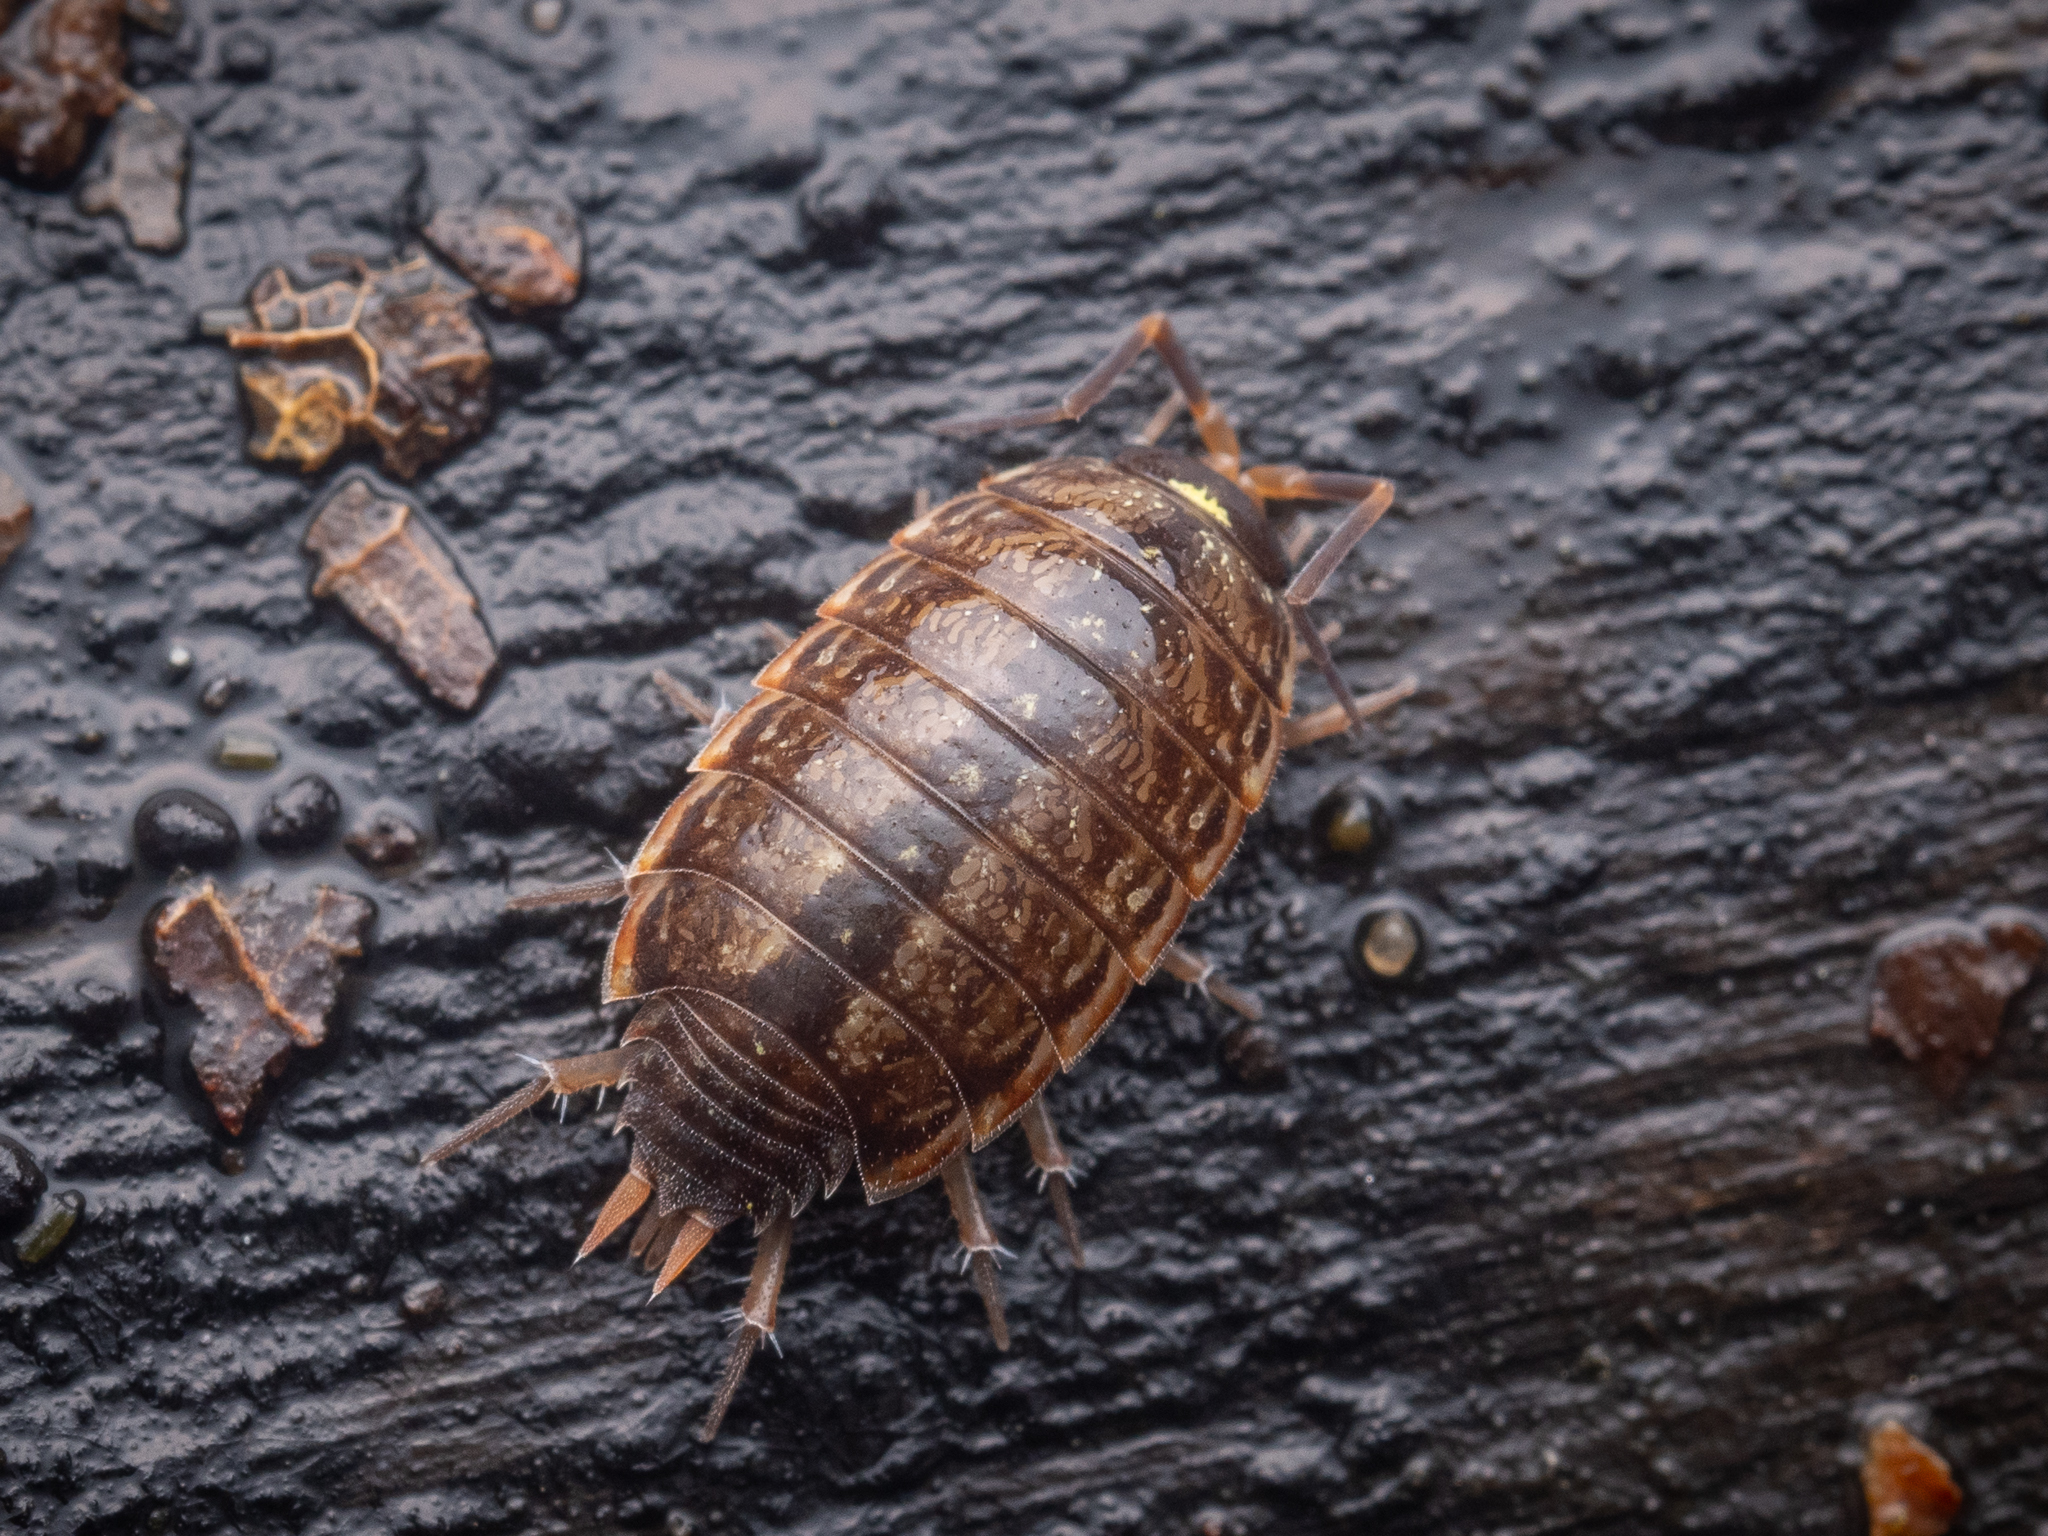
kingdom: Animalia
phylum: Arthropoda
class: Malacostraca
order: Isopoda
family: Philosciidae
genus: Philoscia
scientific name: Philoscia muscorum
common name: Common striped woodlouse
